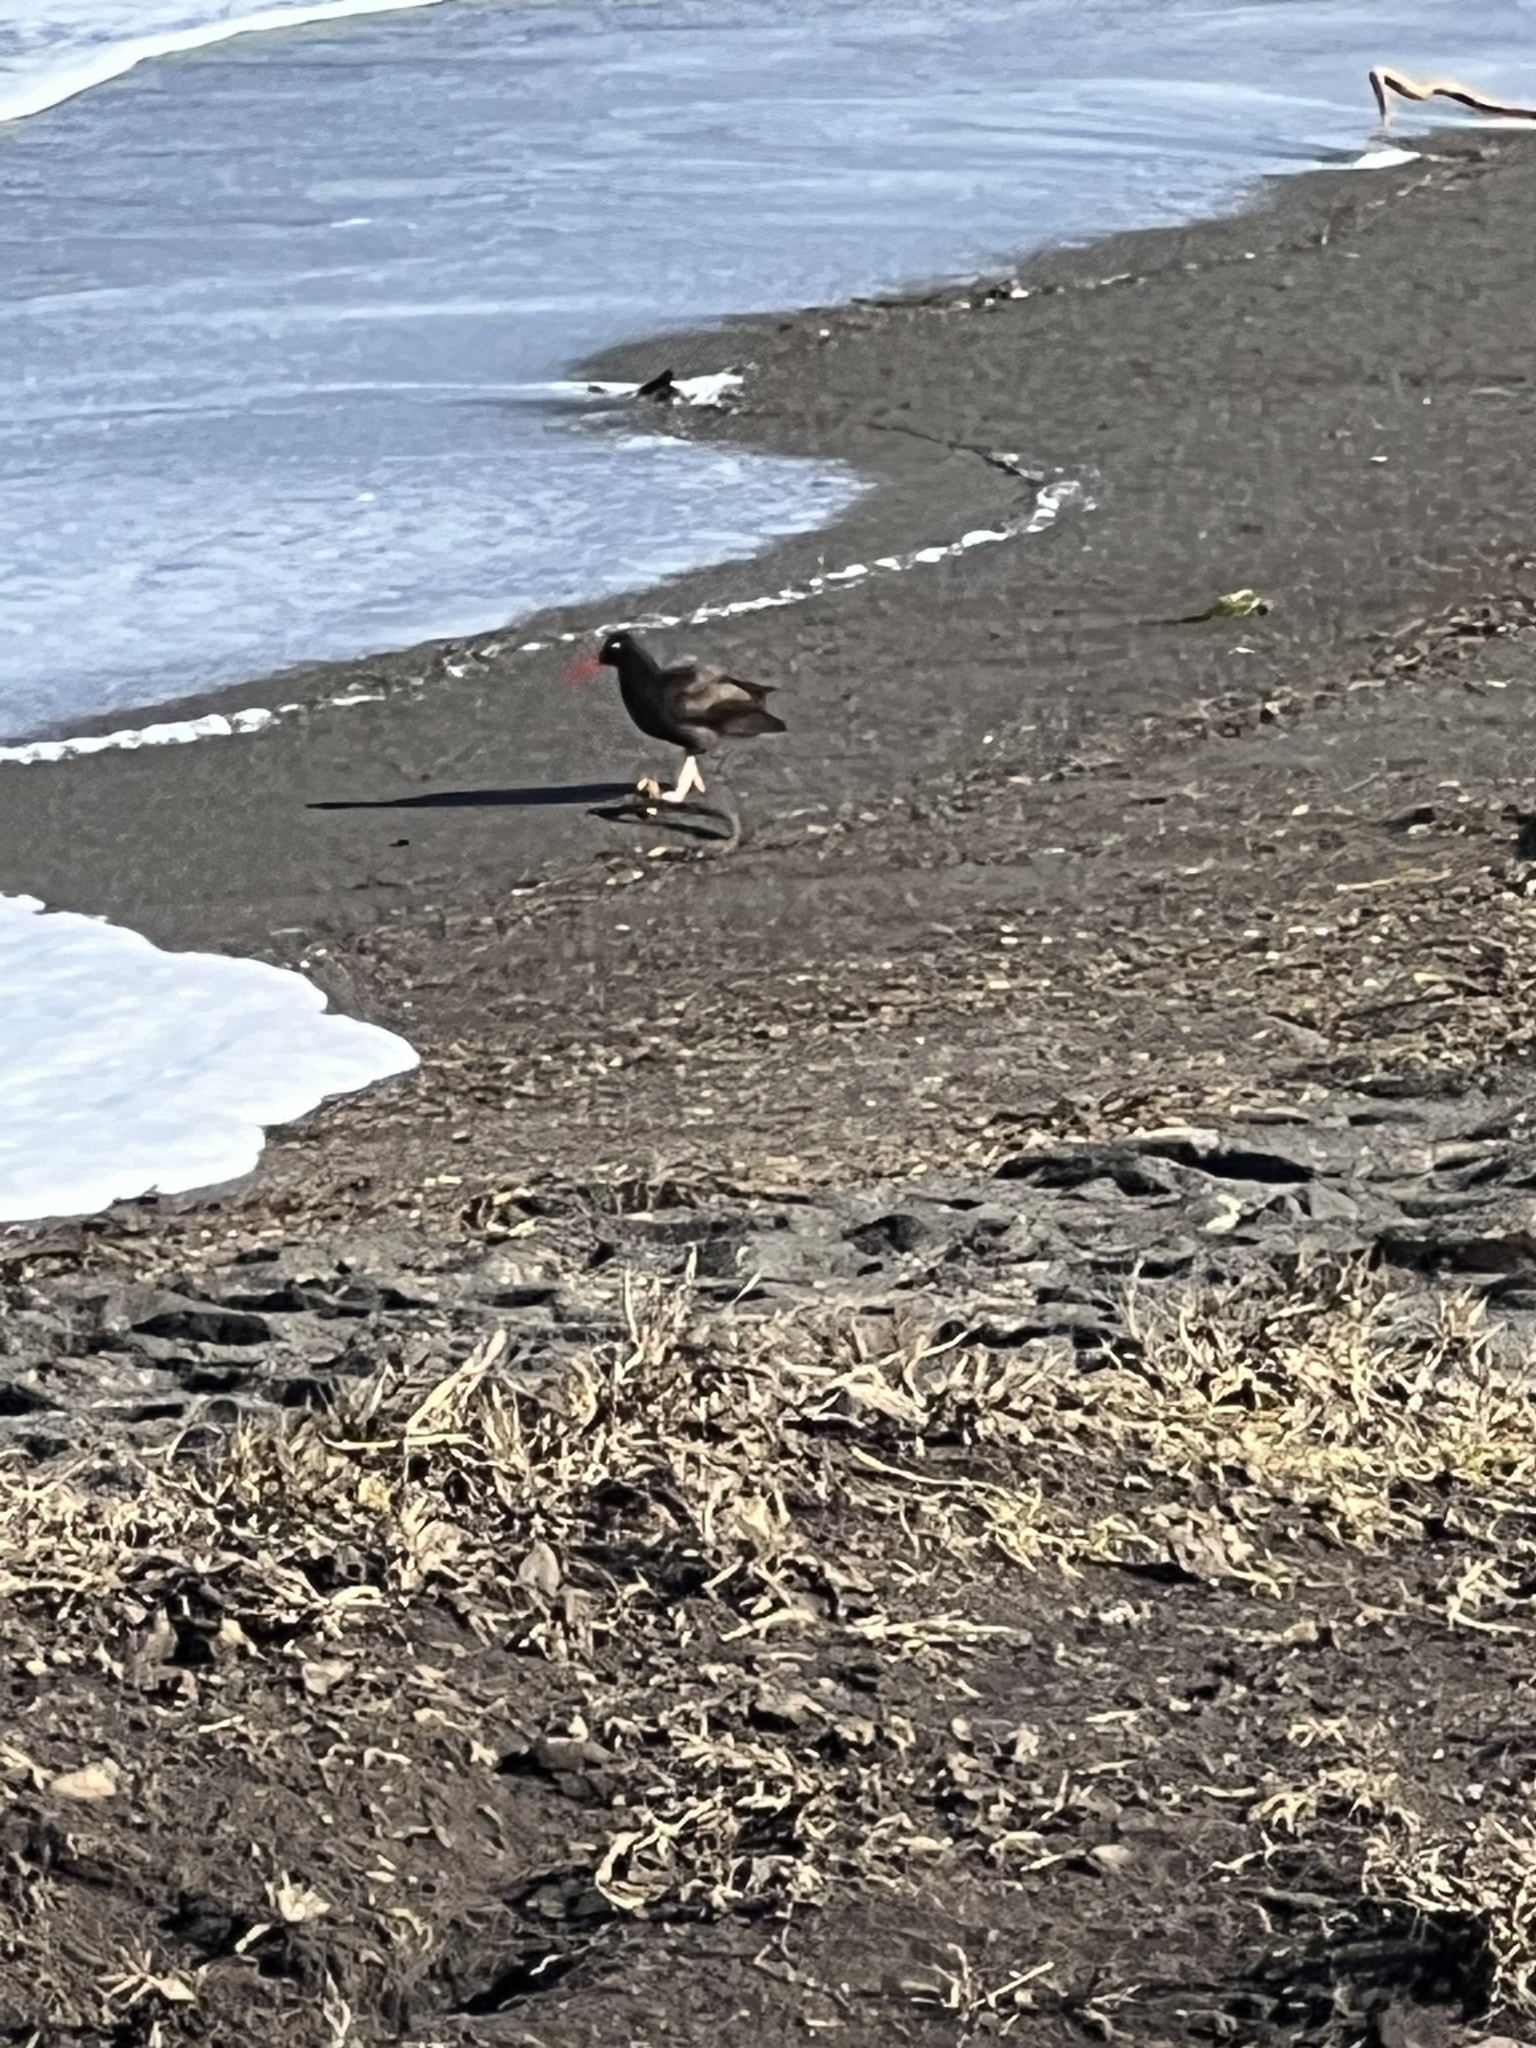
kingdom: Animalia
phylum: Chordata
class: Aves
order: Charadriiformes
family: Haematopodidae
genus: Haematopus
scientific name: Haematopus bachmani
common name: Black oystercatcher
